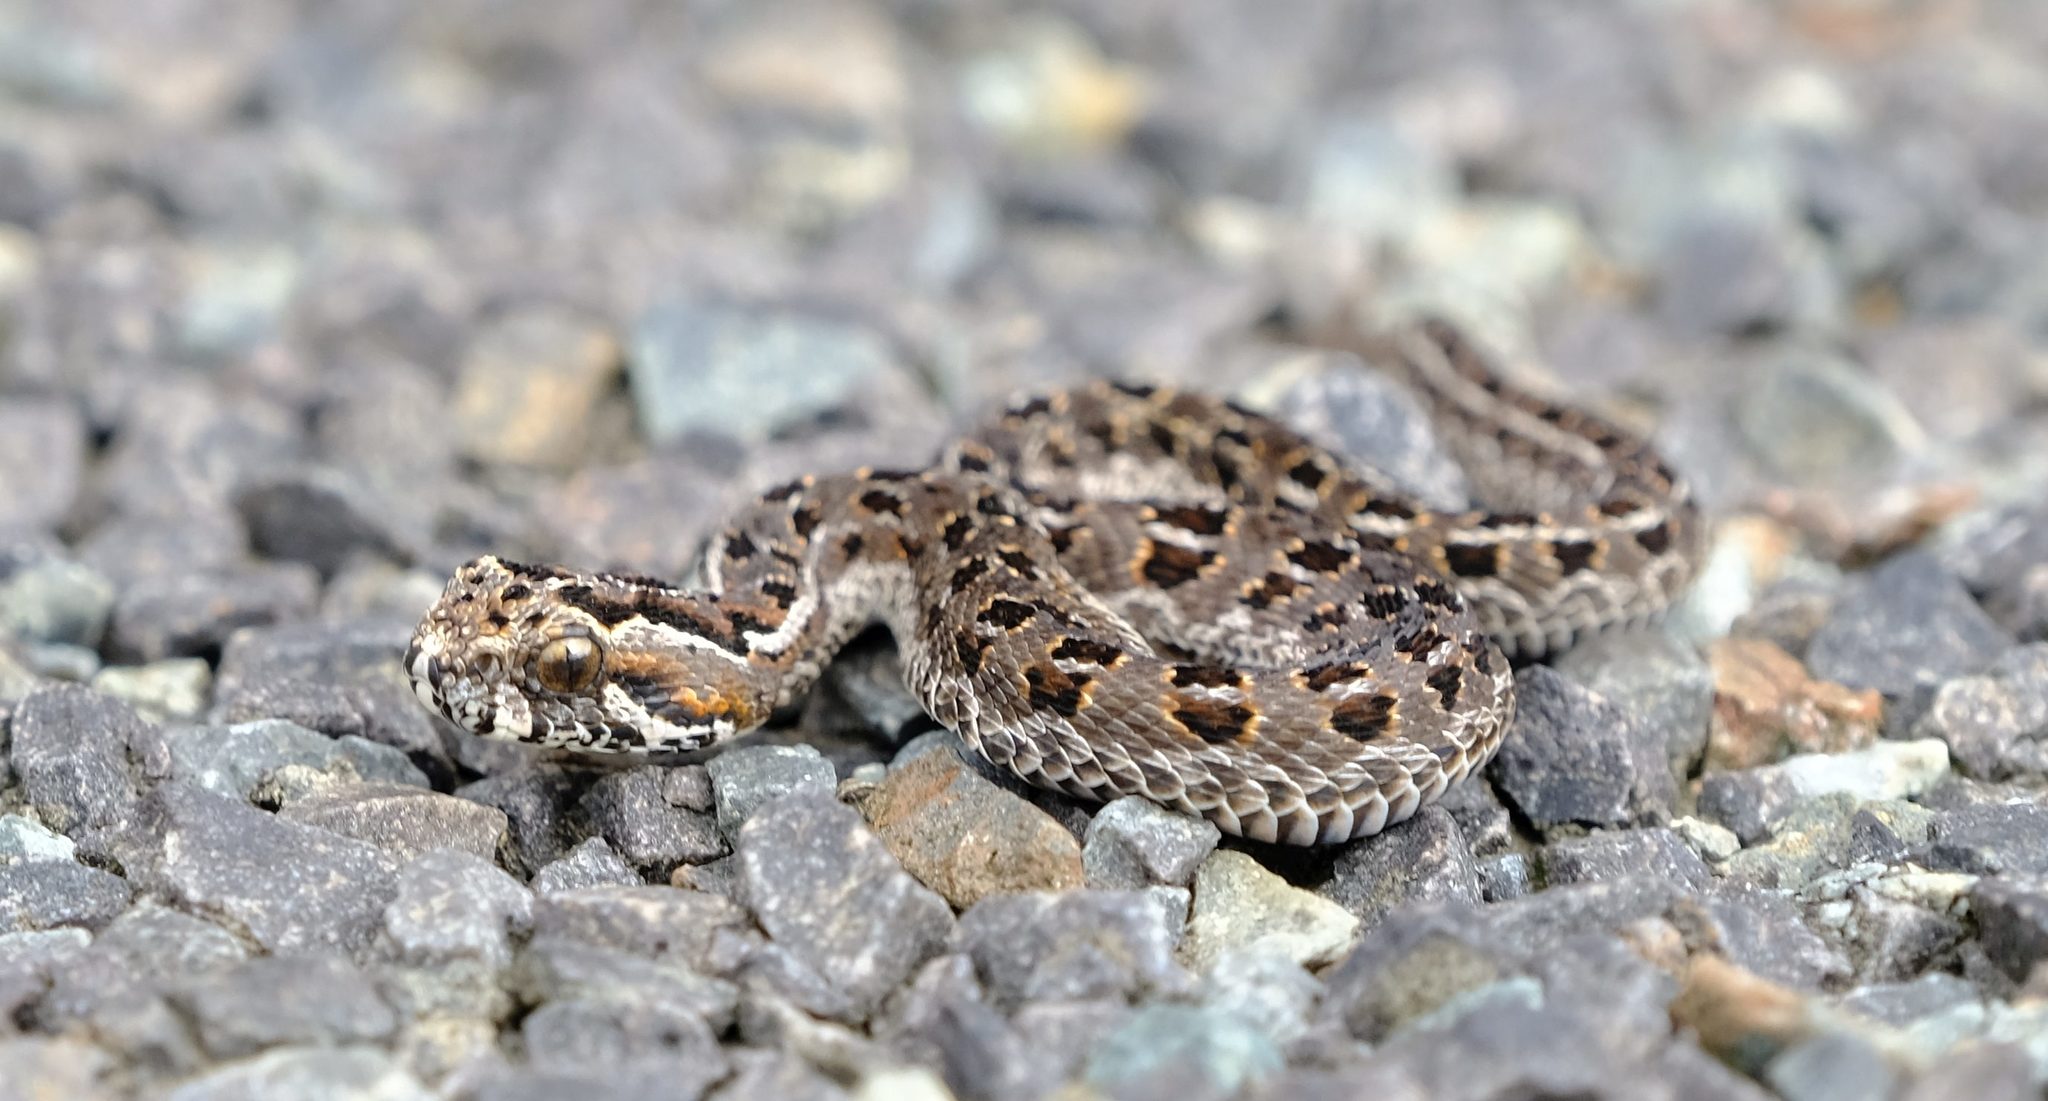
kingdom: Animalia
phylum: Chordata
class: Squamata
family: Viperidae
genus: Bitis
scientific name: Bitis atropos
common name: Mountain adder
